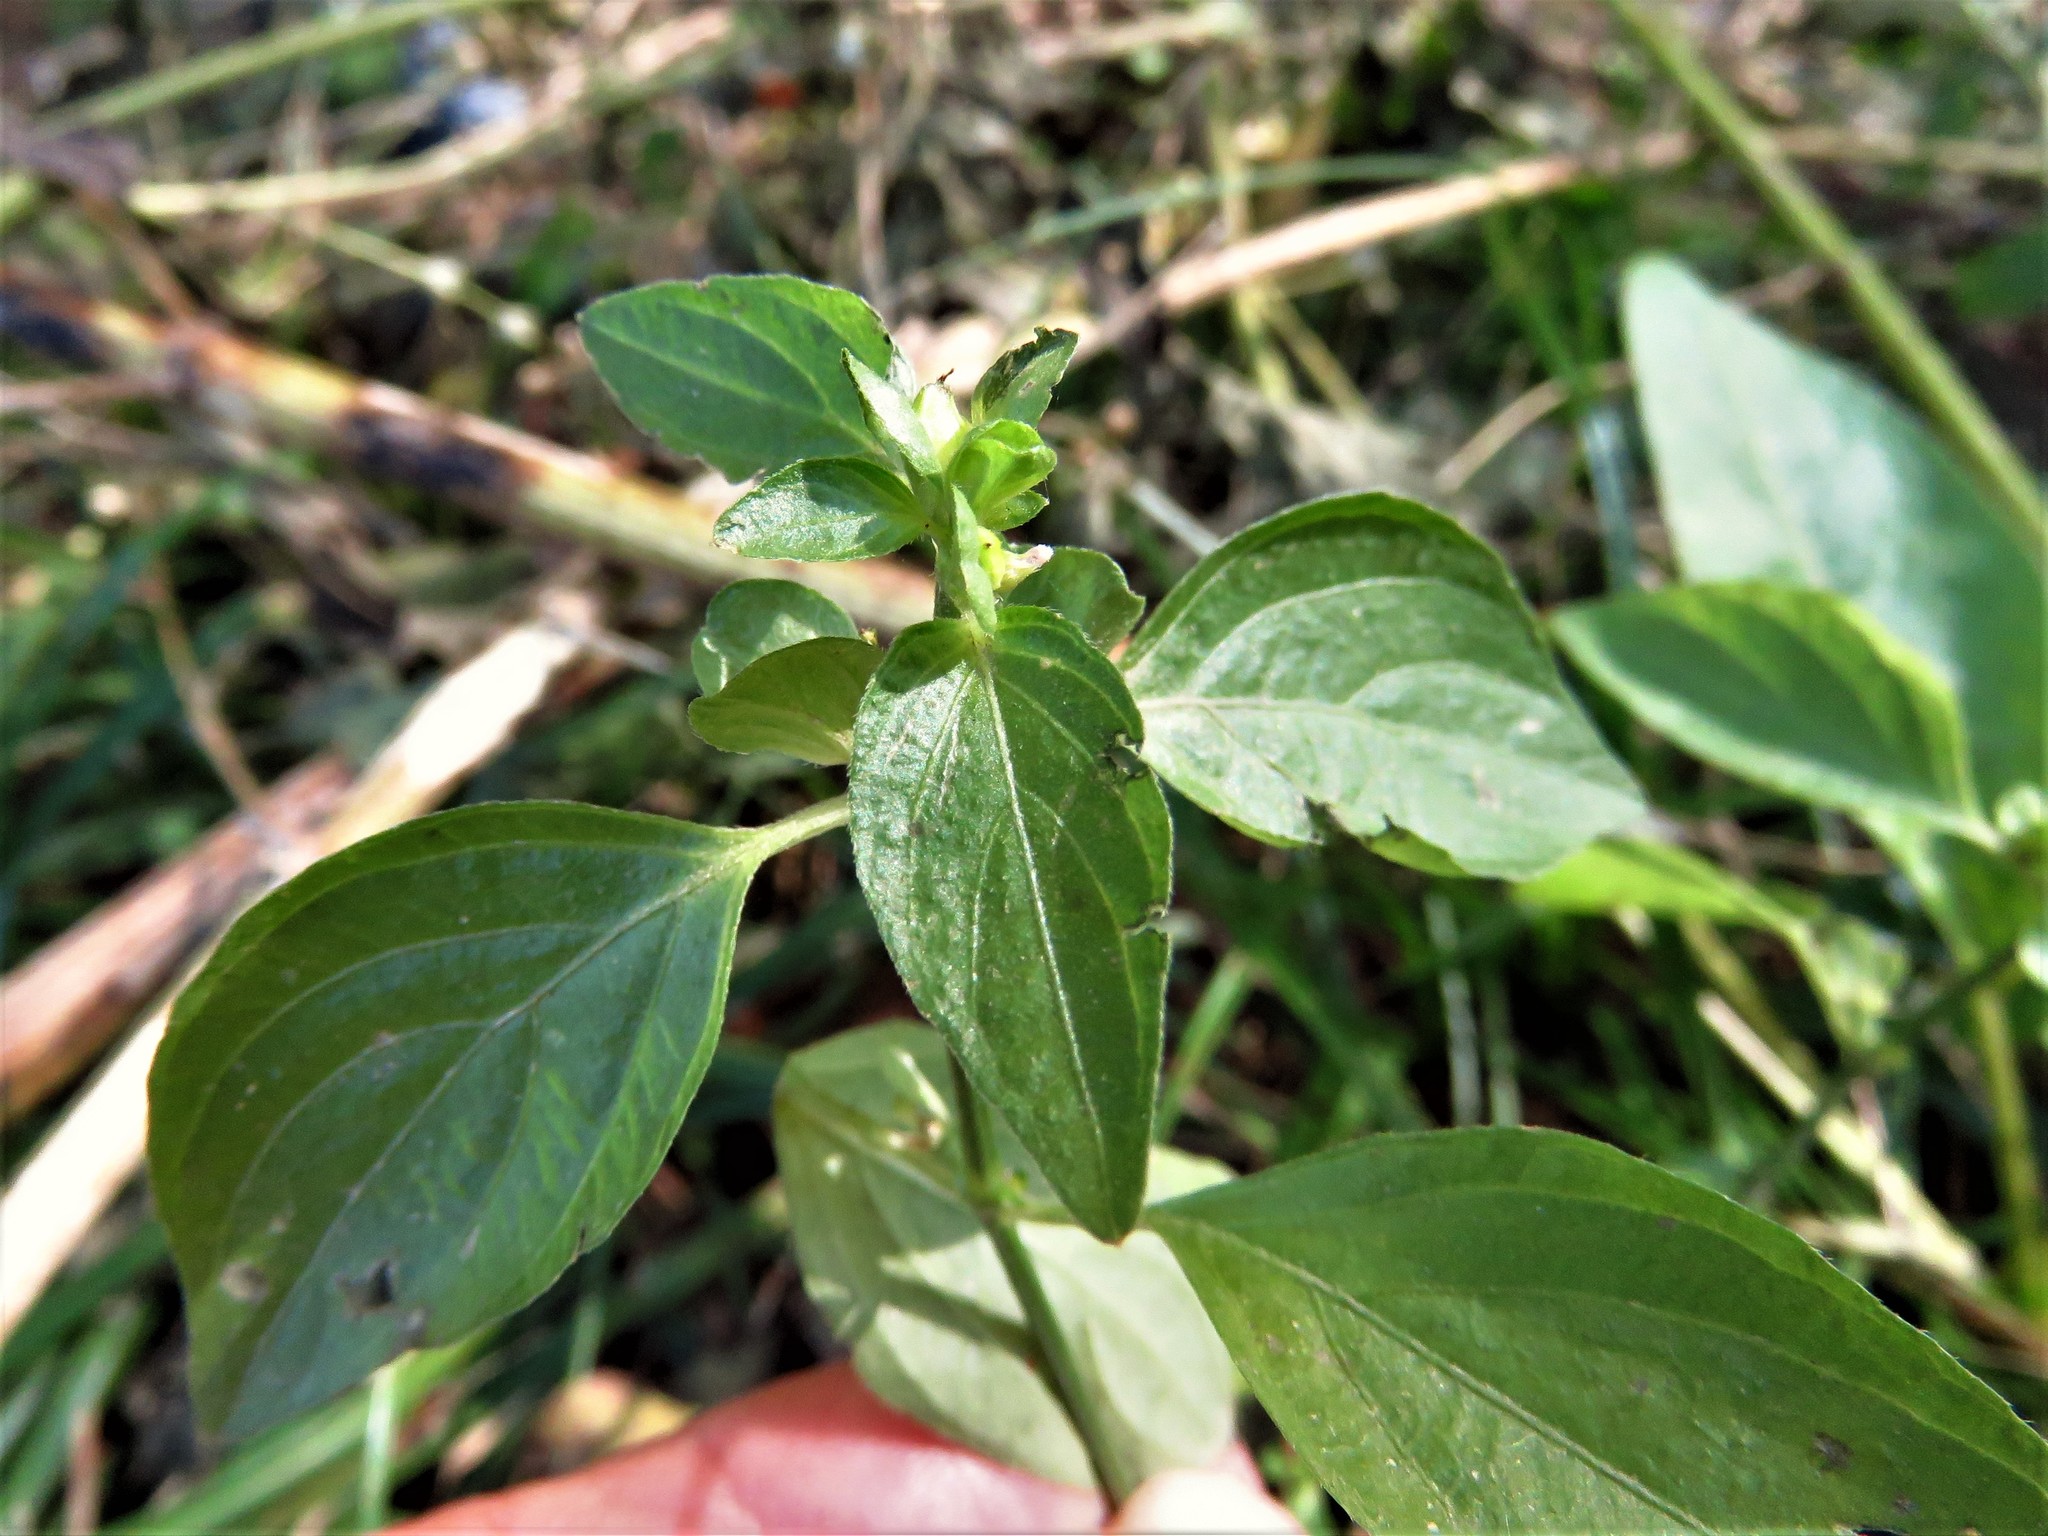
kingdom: Plantae
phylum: Tracheophyta
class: Magnoliopsida
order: Lamiales
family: Acanthaceae
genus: Dicliptera
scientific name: Dicliptera brachiata
